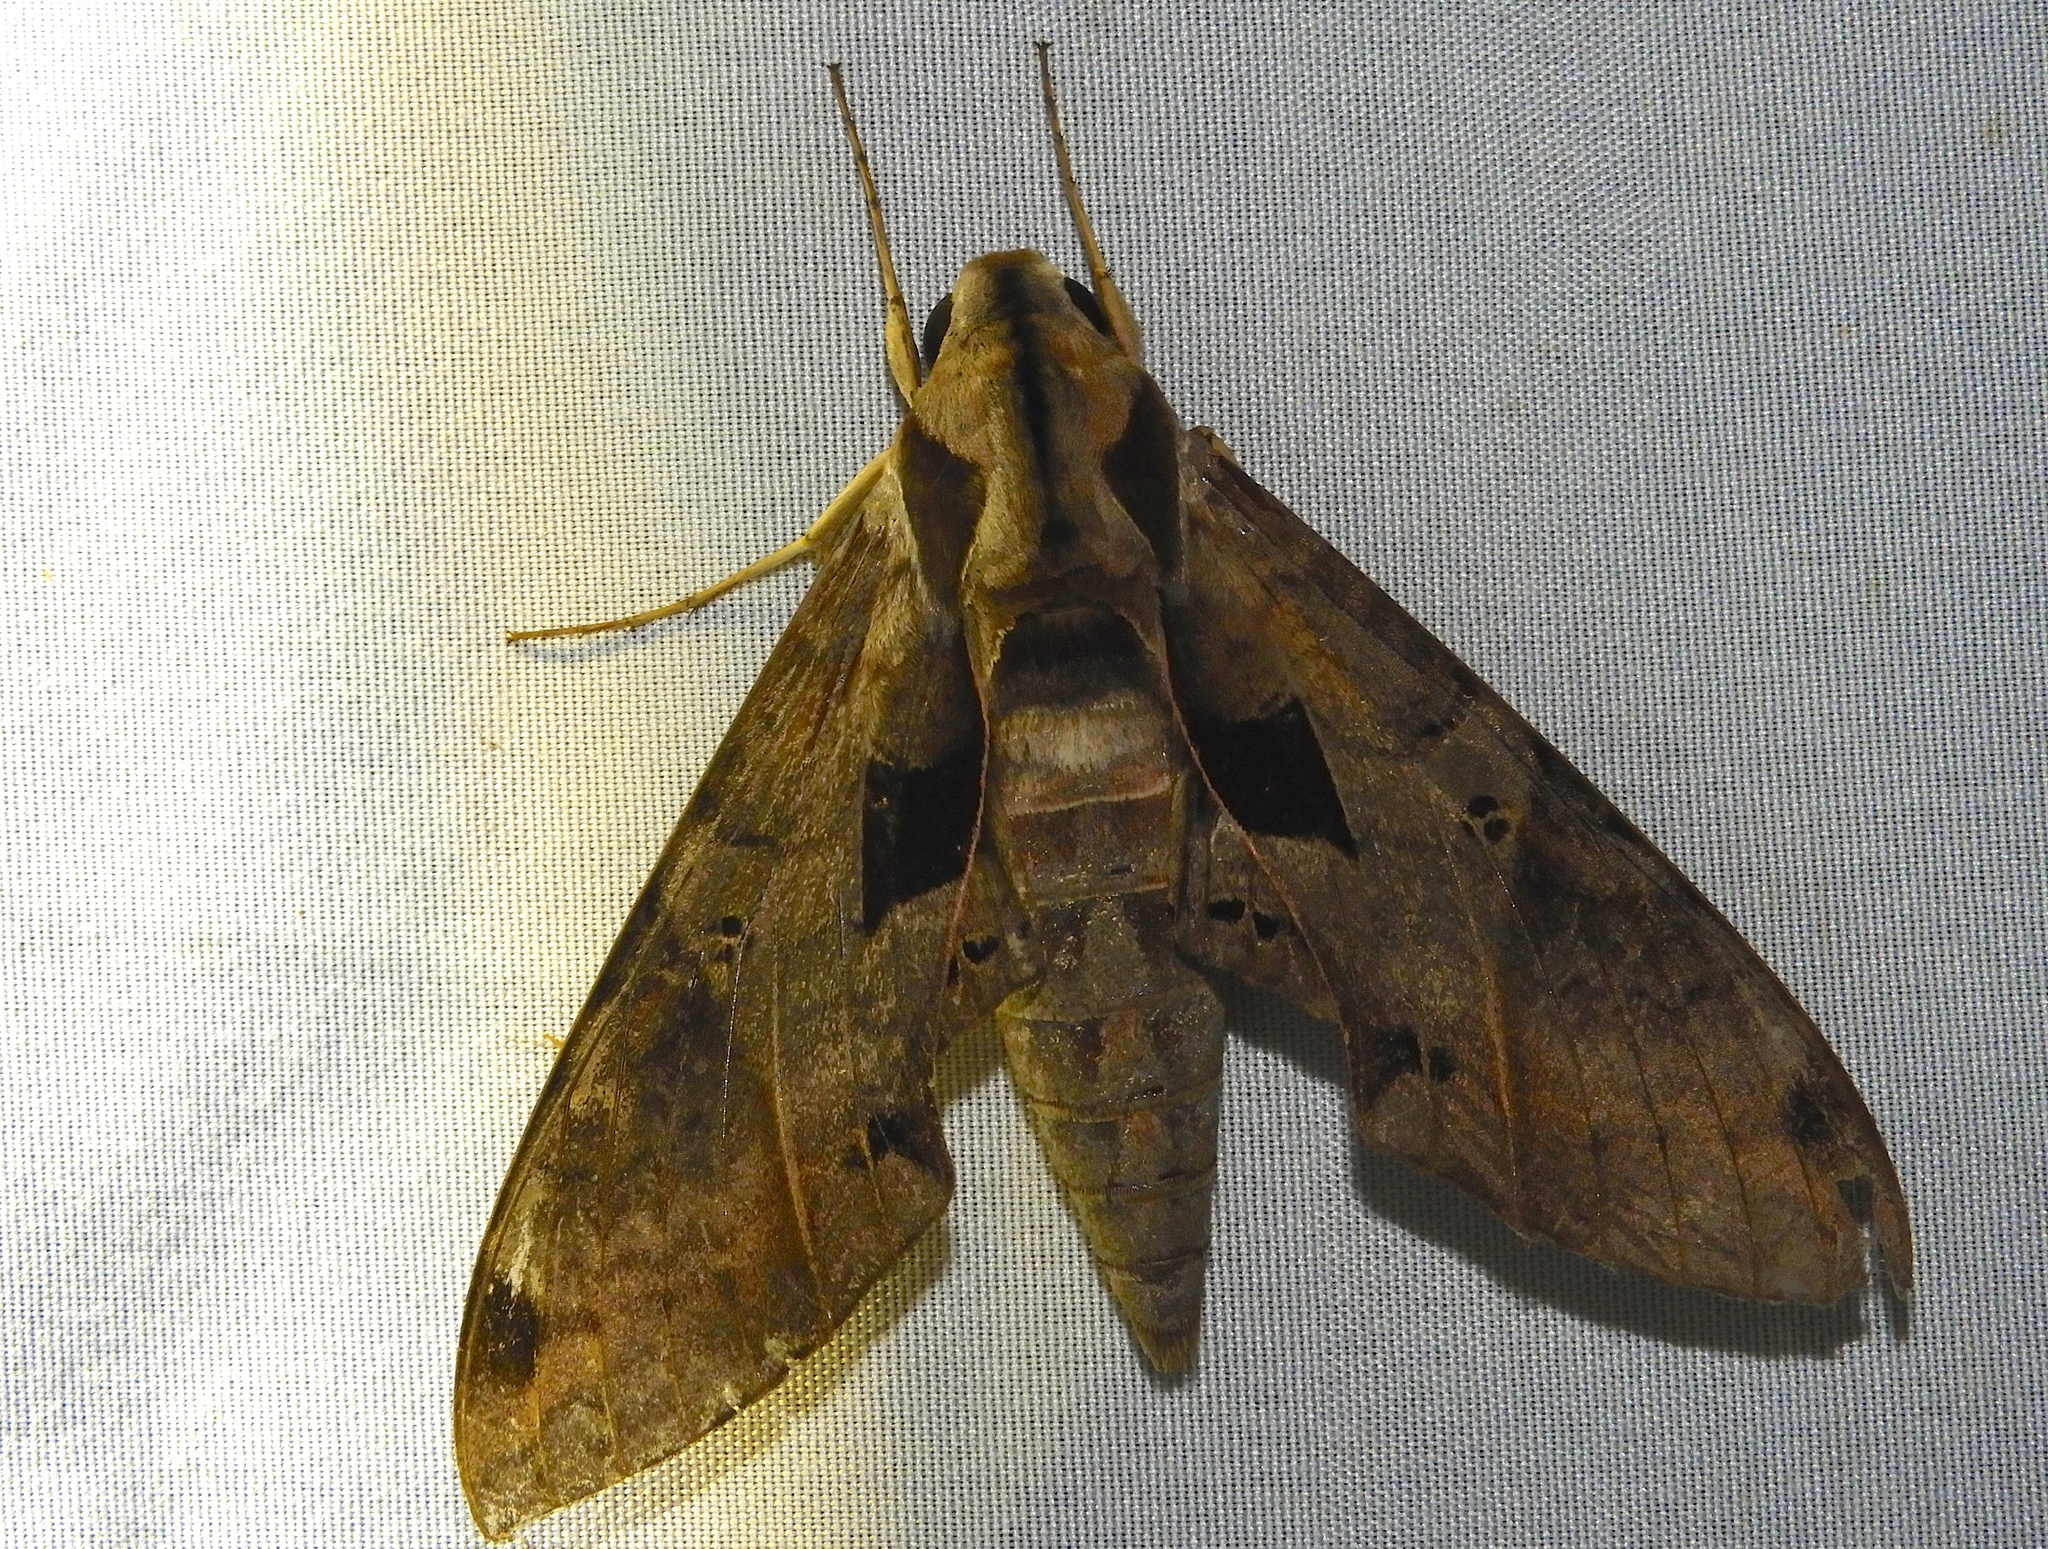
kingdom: Animalia
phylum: Arthropoda
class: Insecta
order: Lepidoptera
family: Sphingidae
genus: Eumorpha
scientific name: Eumorpha satellitia
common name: Satellite sphinx
